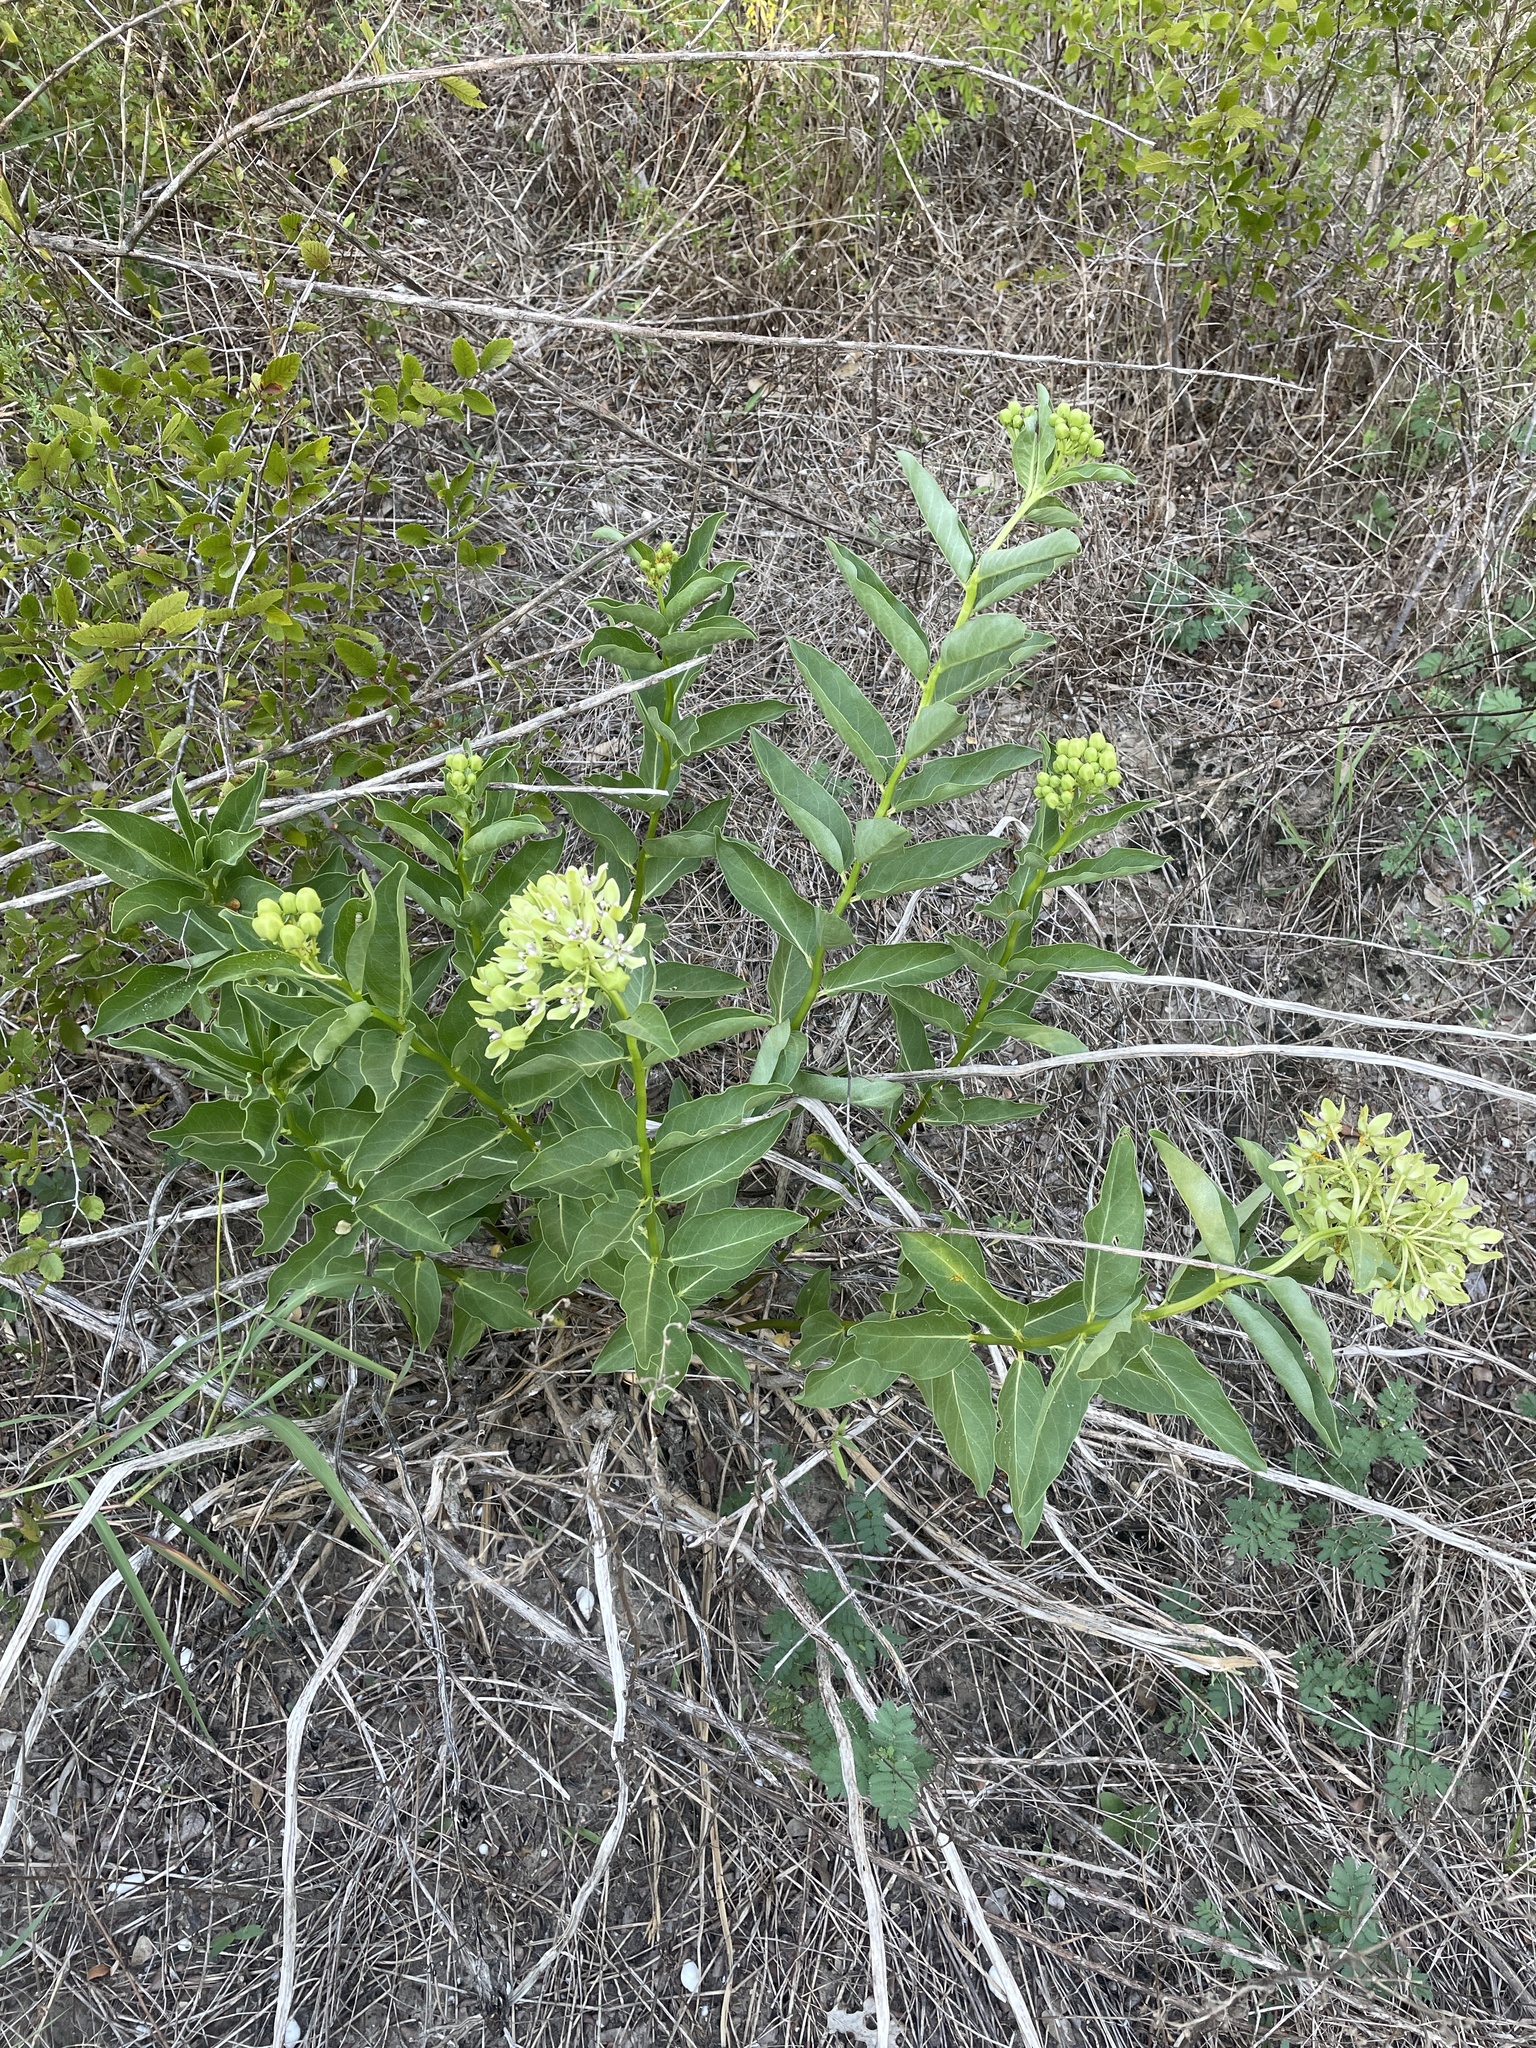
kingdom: Plantae
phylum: Tracheophyta
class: Magnoliopsida
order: Gentianales
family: Apocynaceae
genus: Asclepias
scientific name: Asclepias viridis
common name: Antelope-horns
